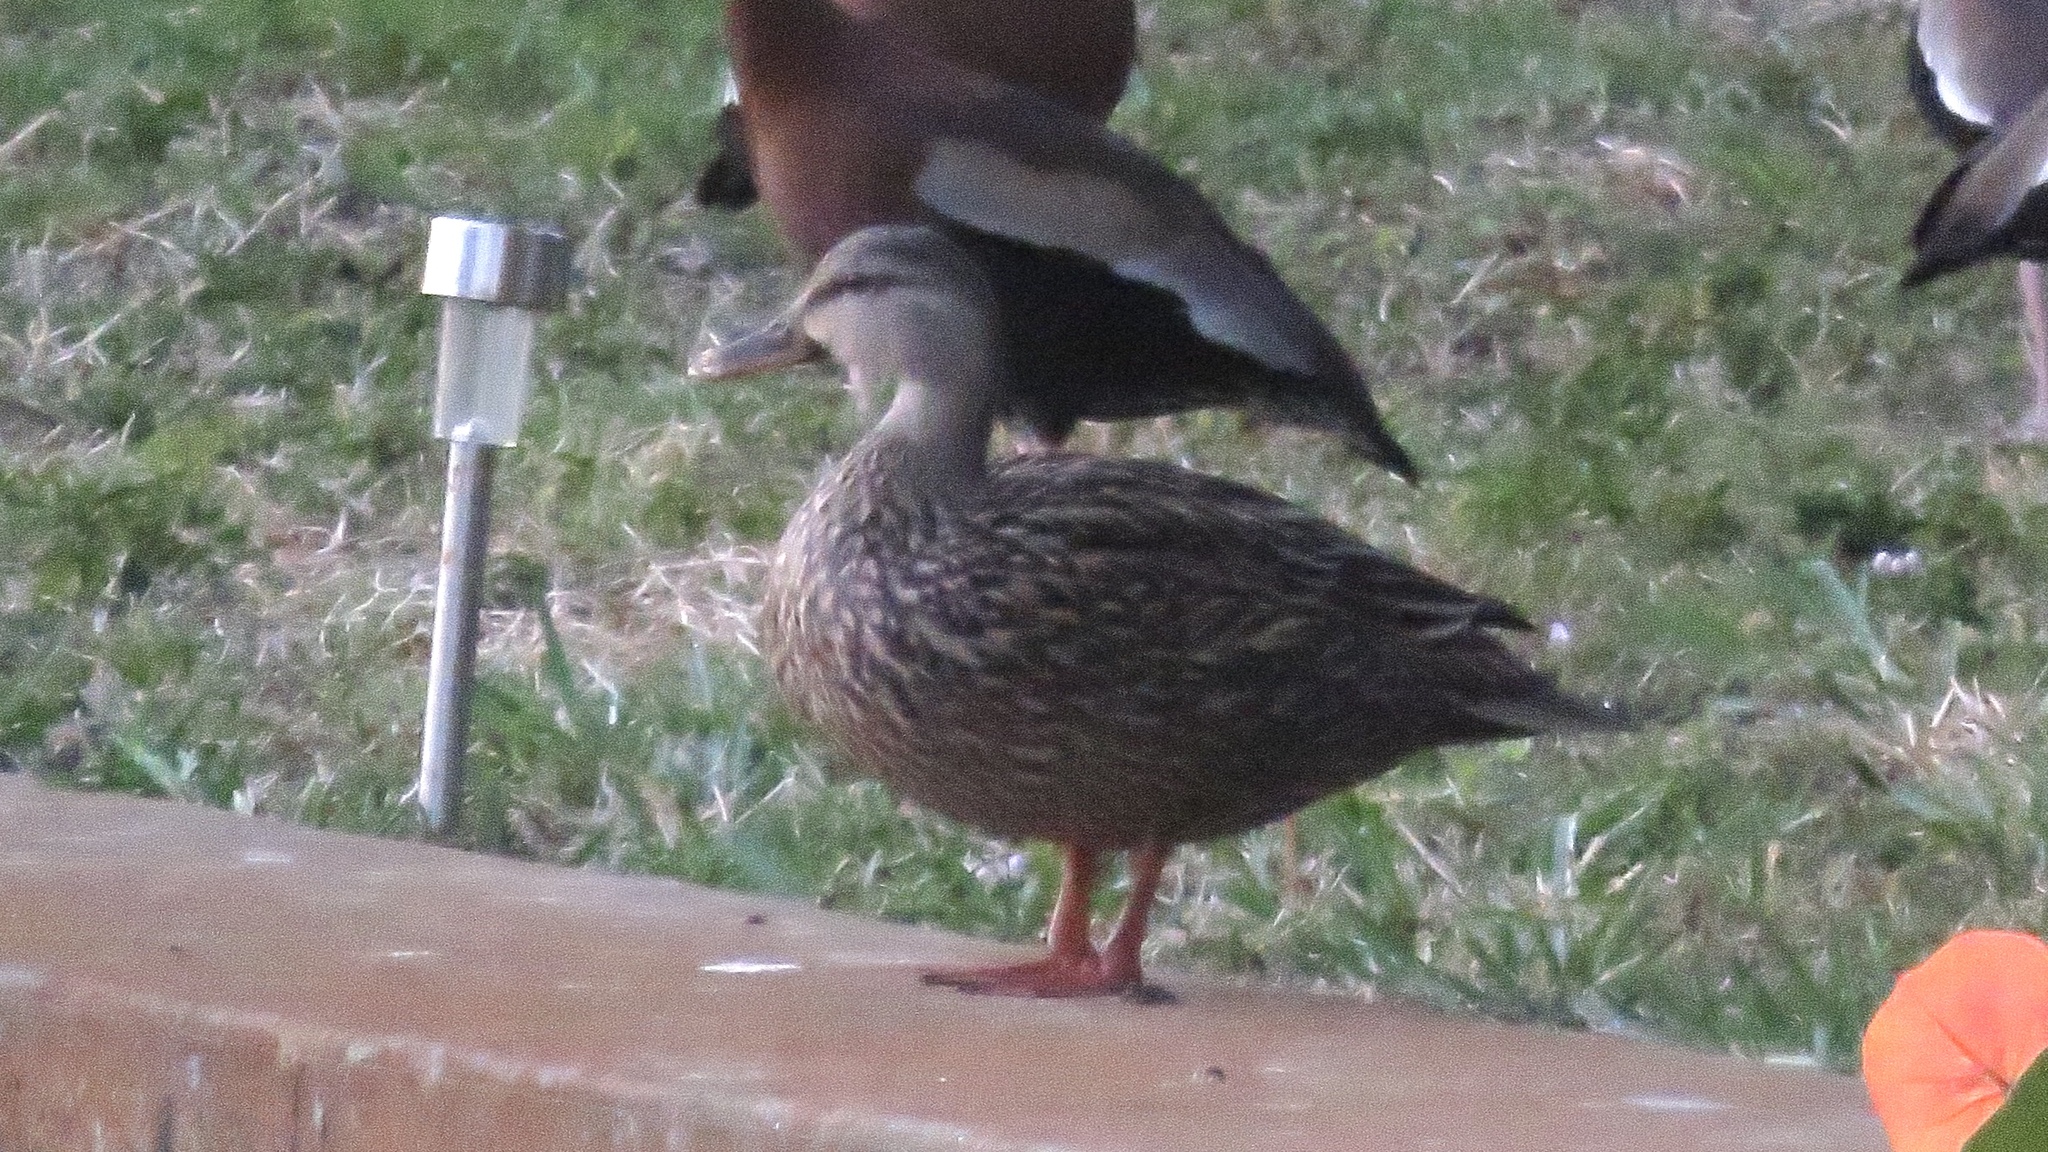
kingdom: Animalia
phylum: Chordata
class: Aves
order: Anseriformes
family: Anatidae
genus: Anas
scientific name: Anas
